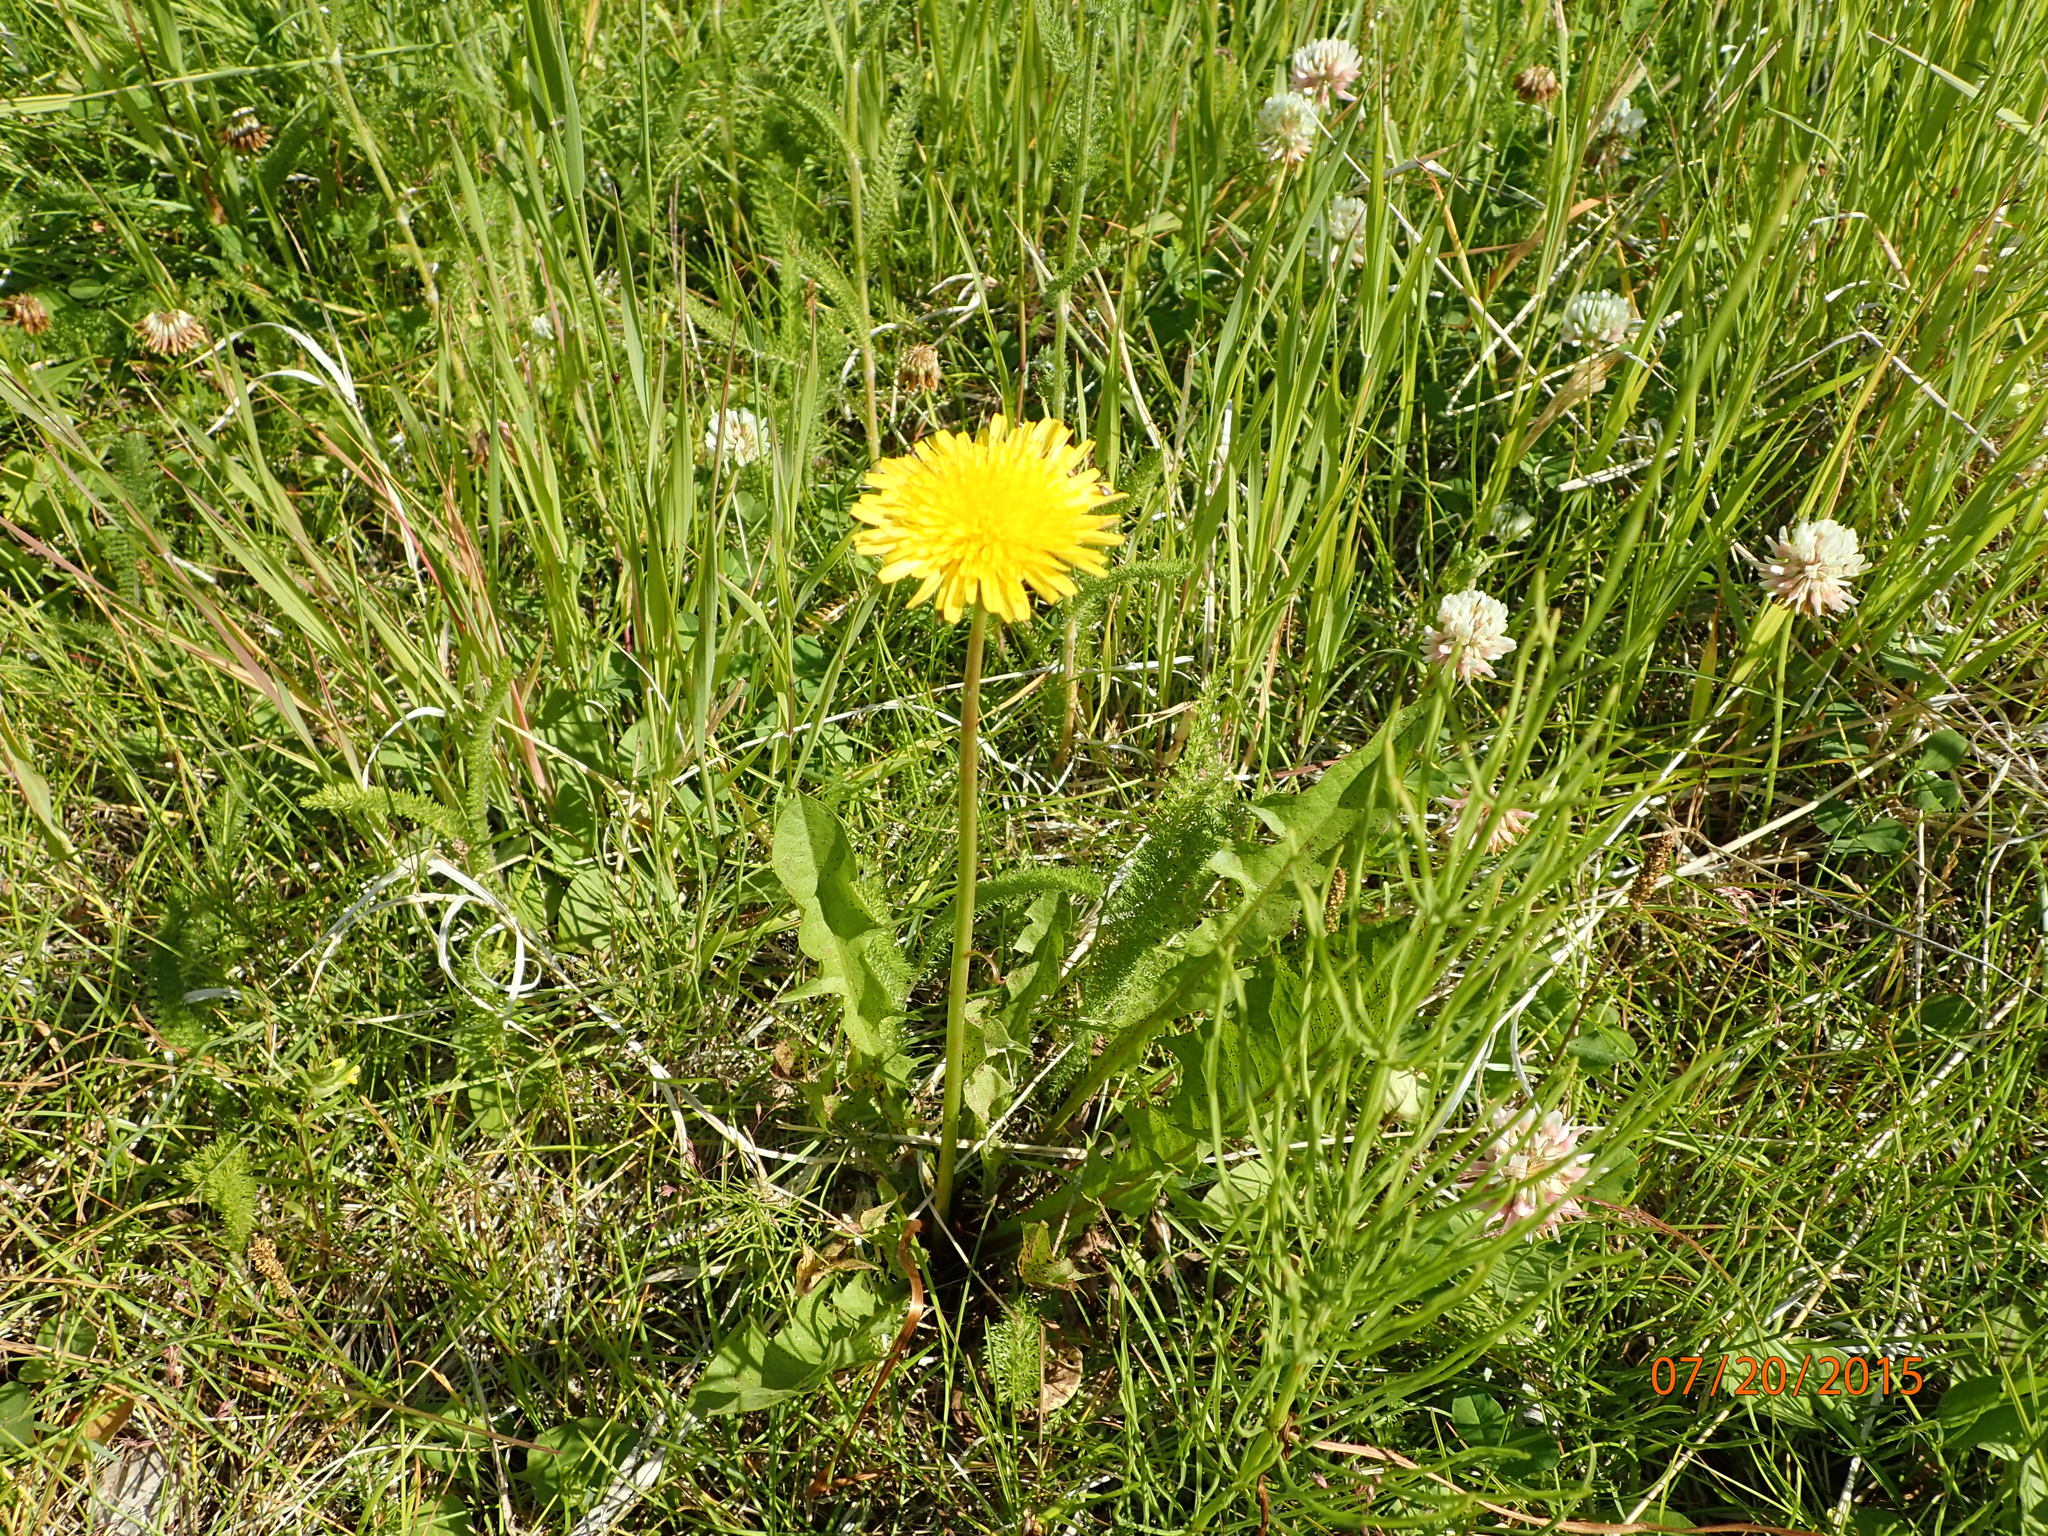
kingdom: Plantae
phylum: Tracheophyta
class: Magnoliopsida
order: Asterales
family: Asteraceae
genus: Taraxacum
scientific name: Taraxacum officinale
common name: Common dandelion
